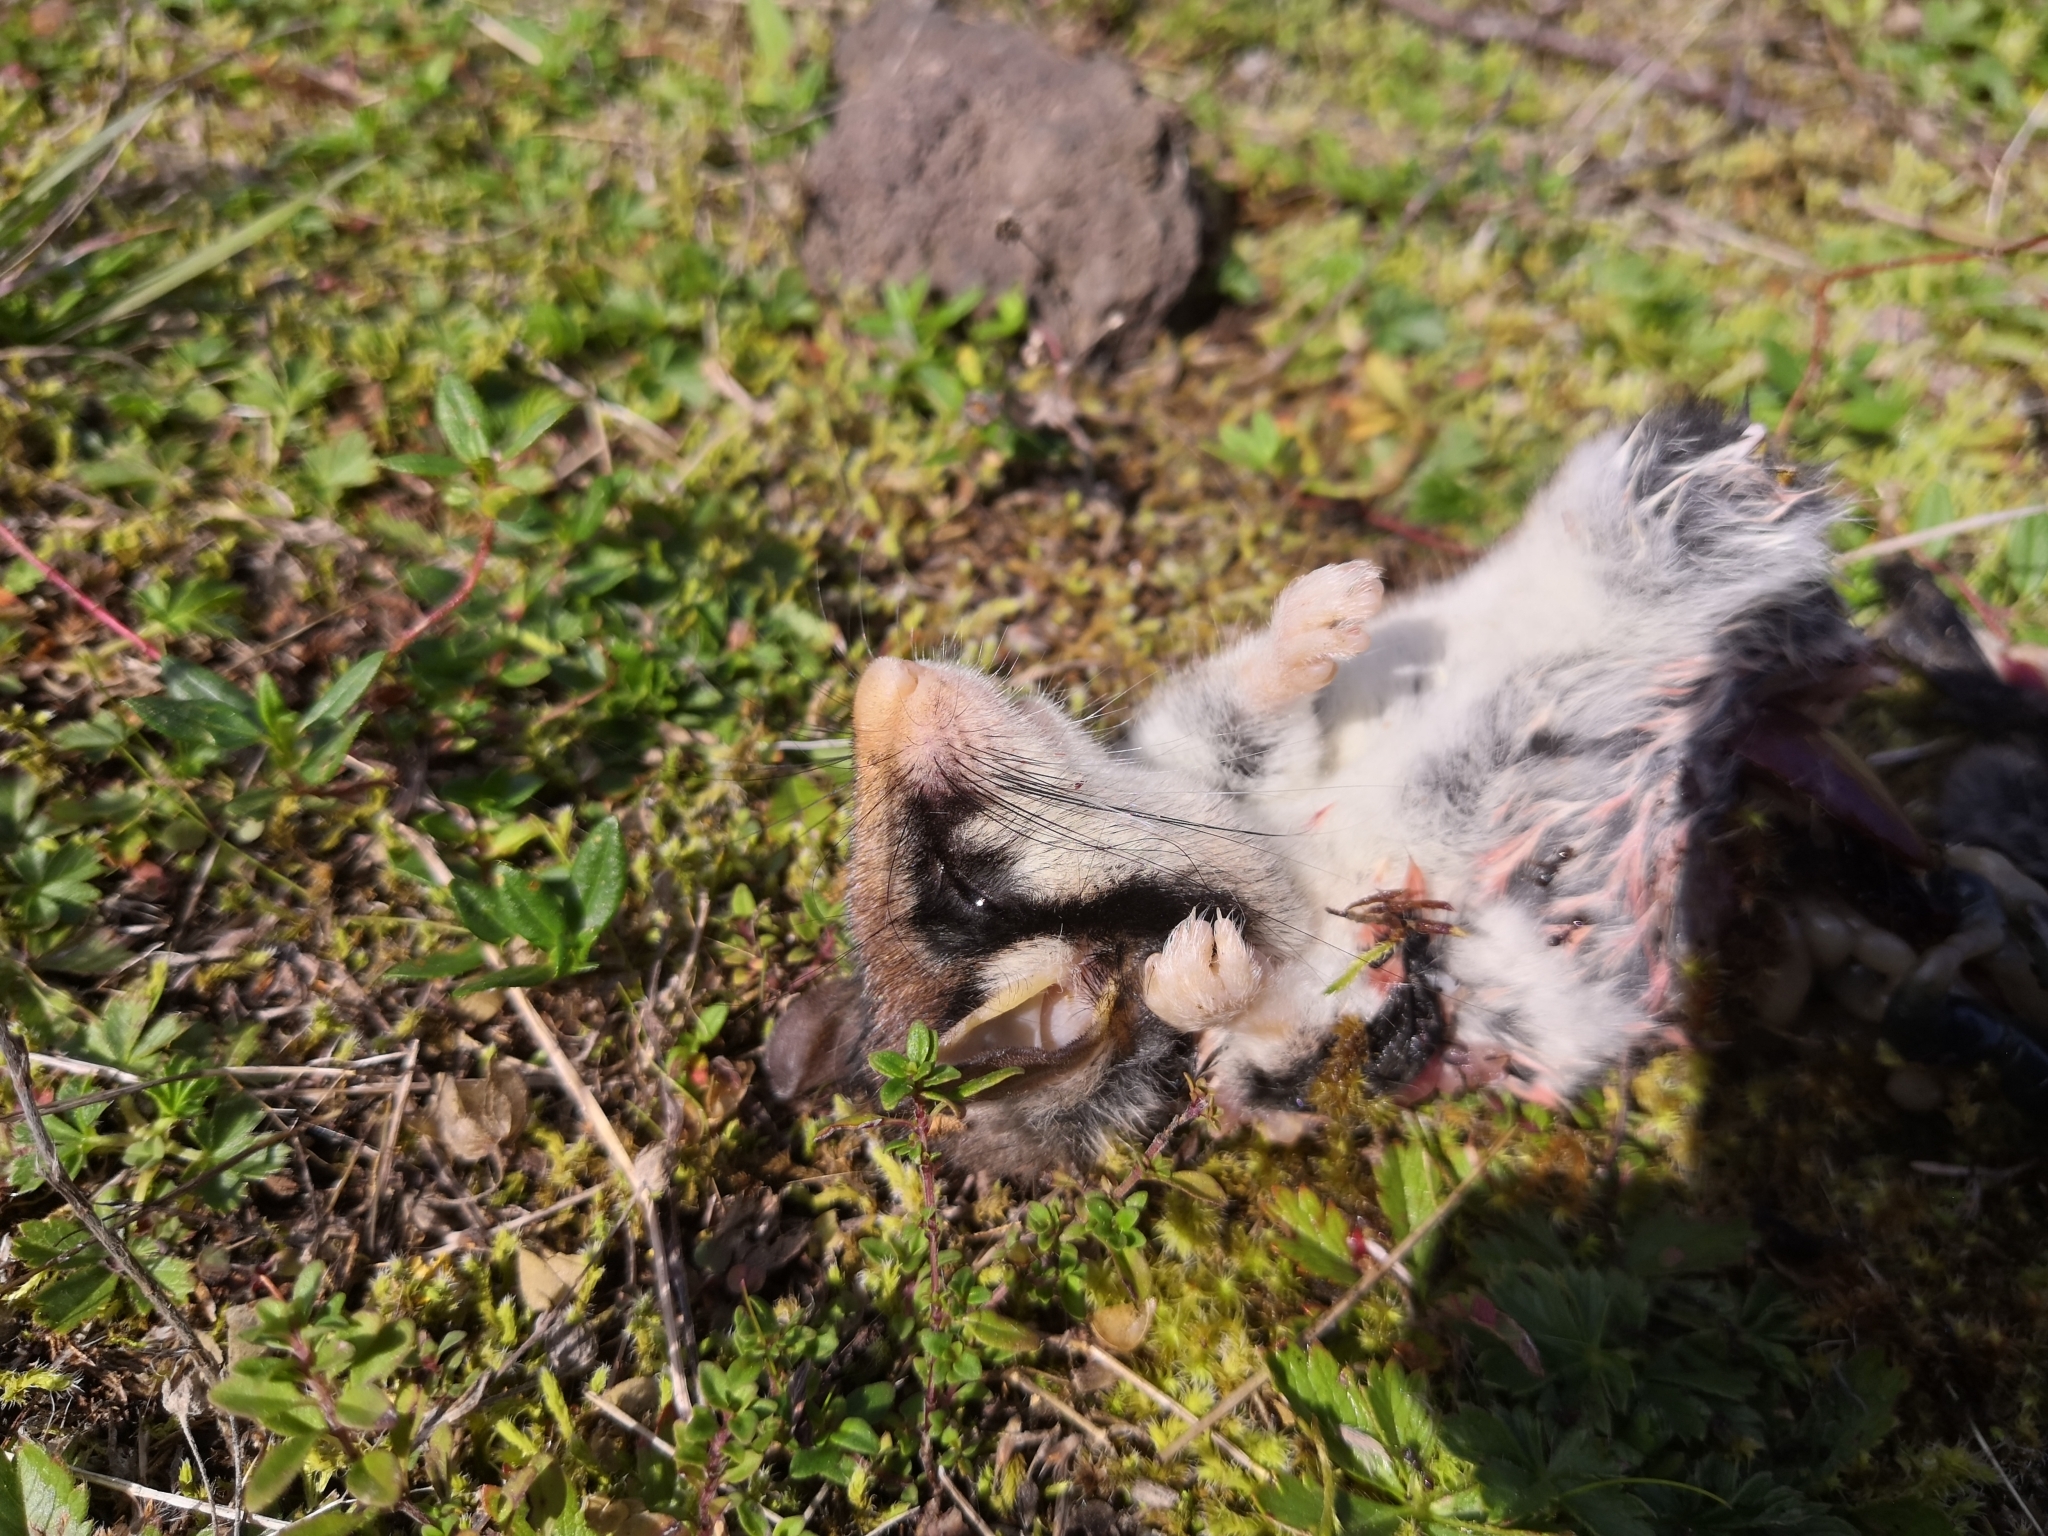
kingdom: Animalia
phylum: Chordata
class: Mammalia
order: Rodentia
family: Gliridae
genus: Eliomys
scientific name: Eliomys quercinus
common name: Garden dormouse
